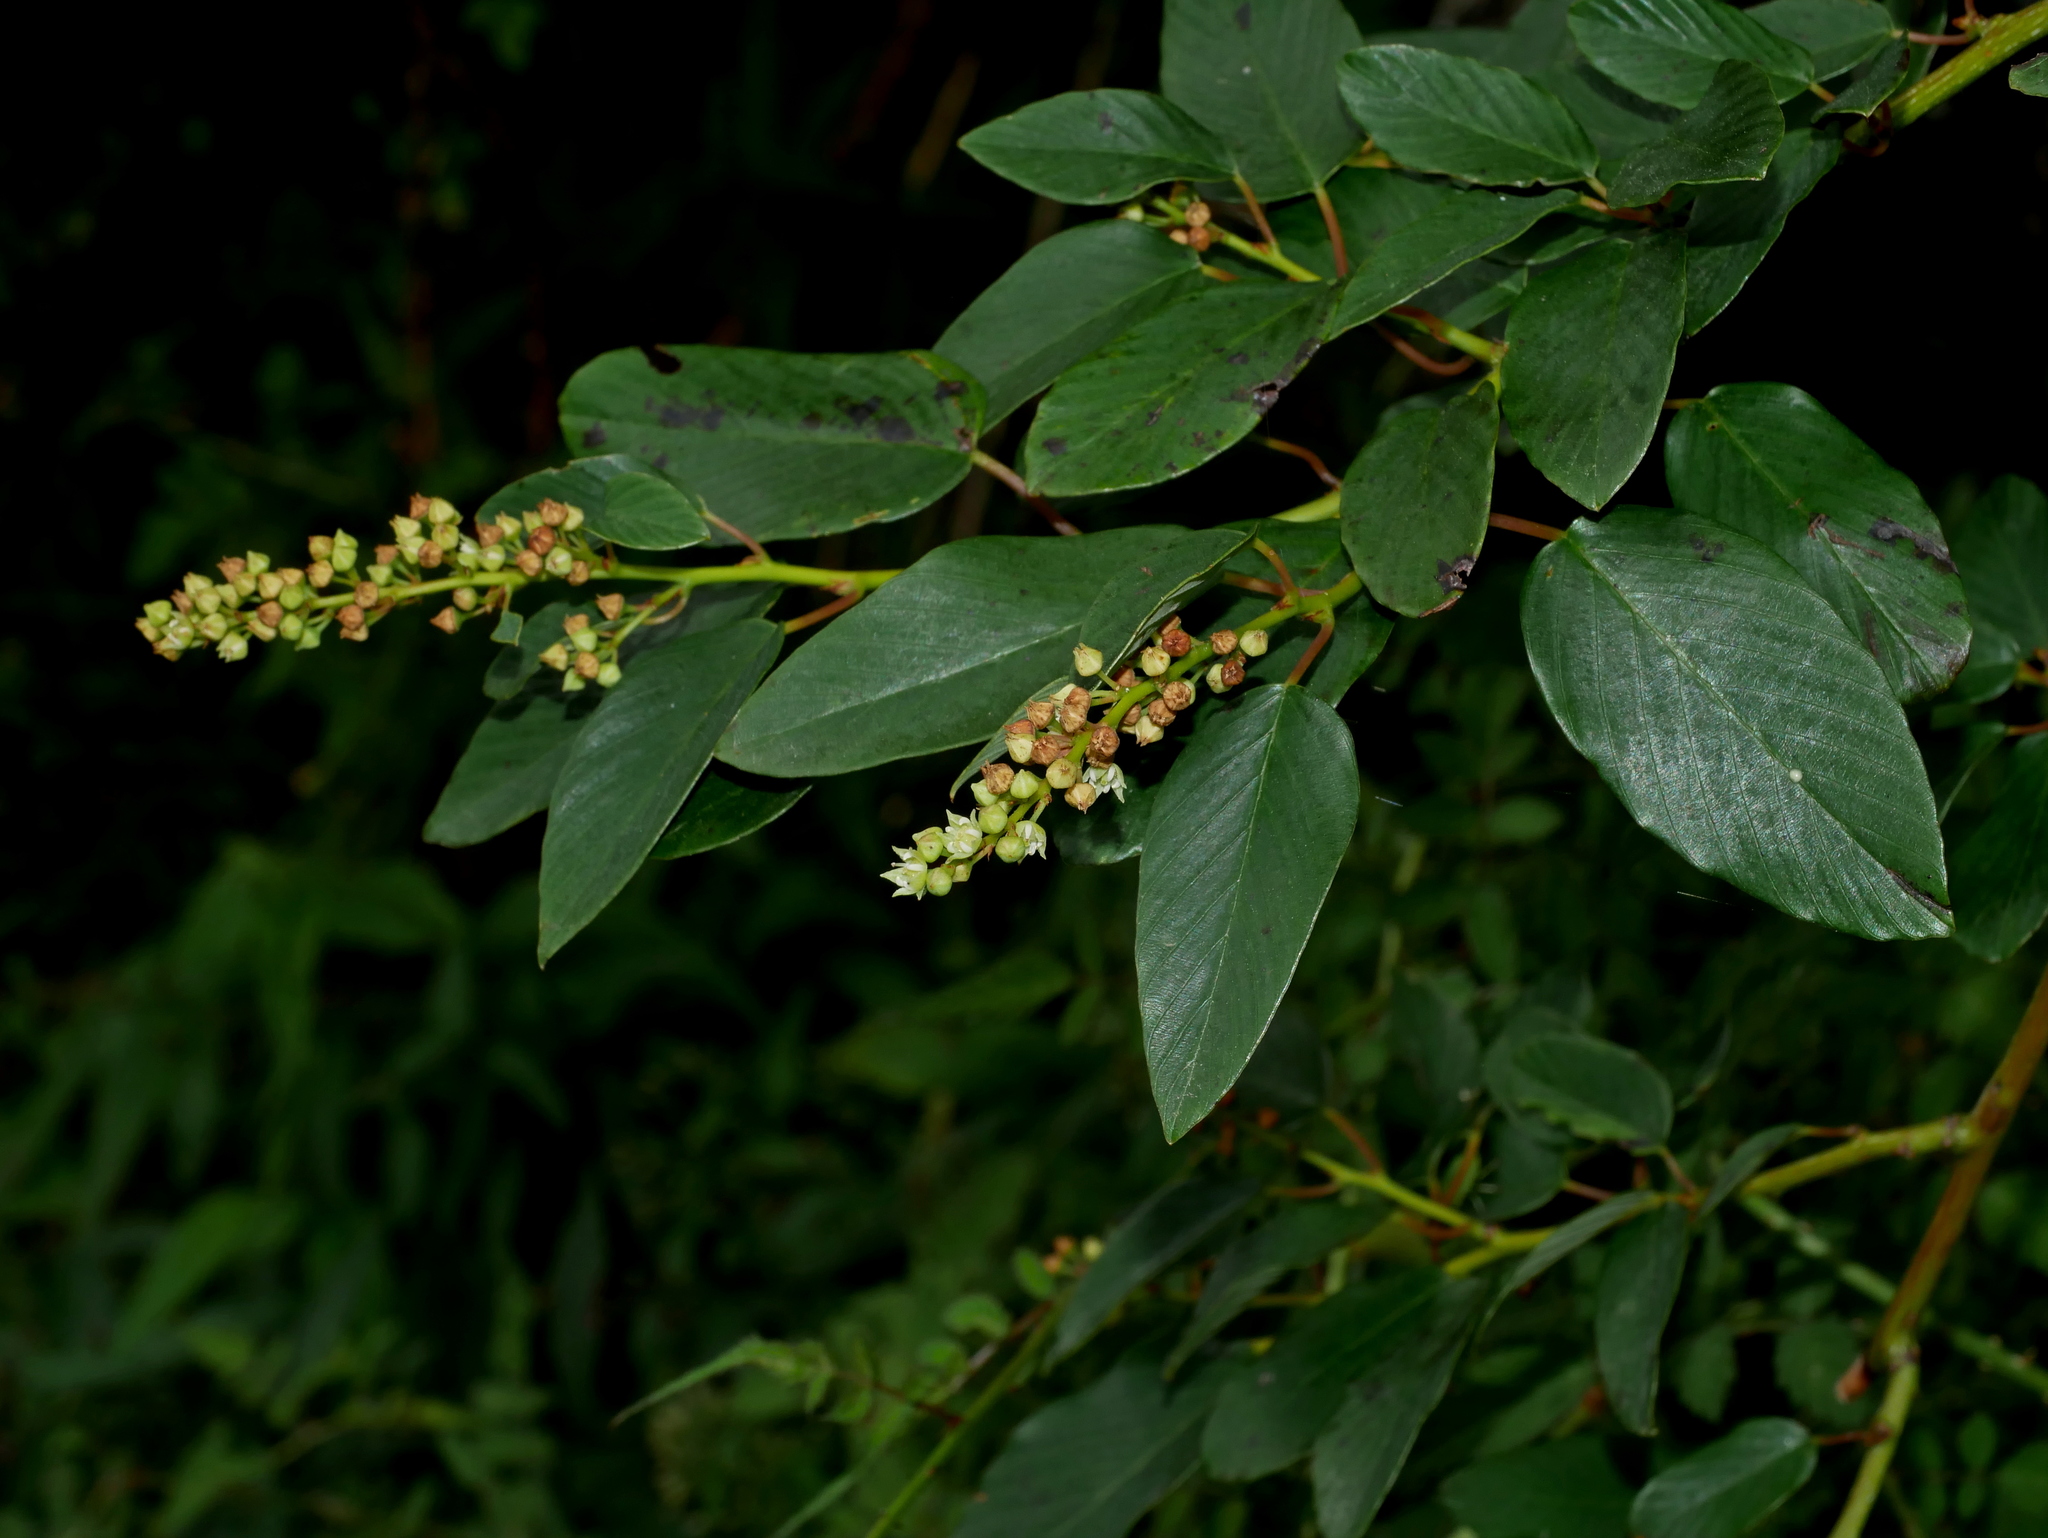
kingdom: Plantae
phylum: Tracheophyta
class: Magnoliopsida
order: Rosales
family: Rhamnaceae
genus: Berchemia
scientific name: Berchemia formosana
